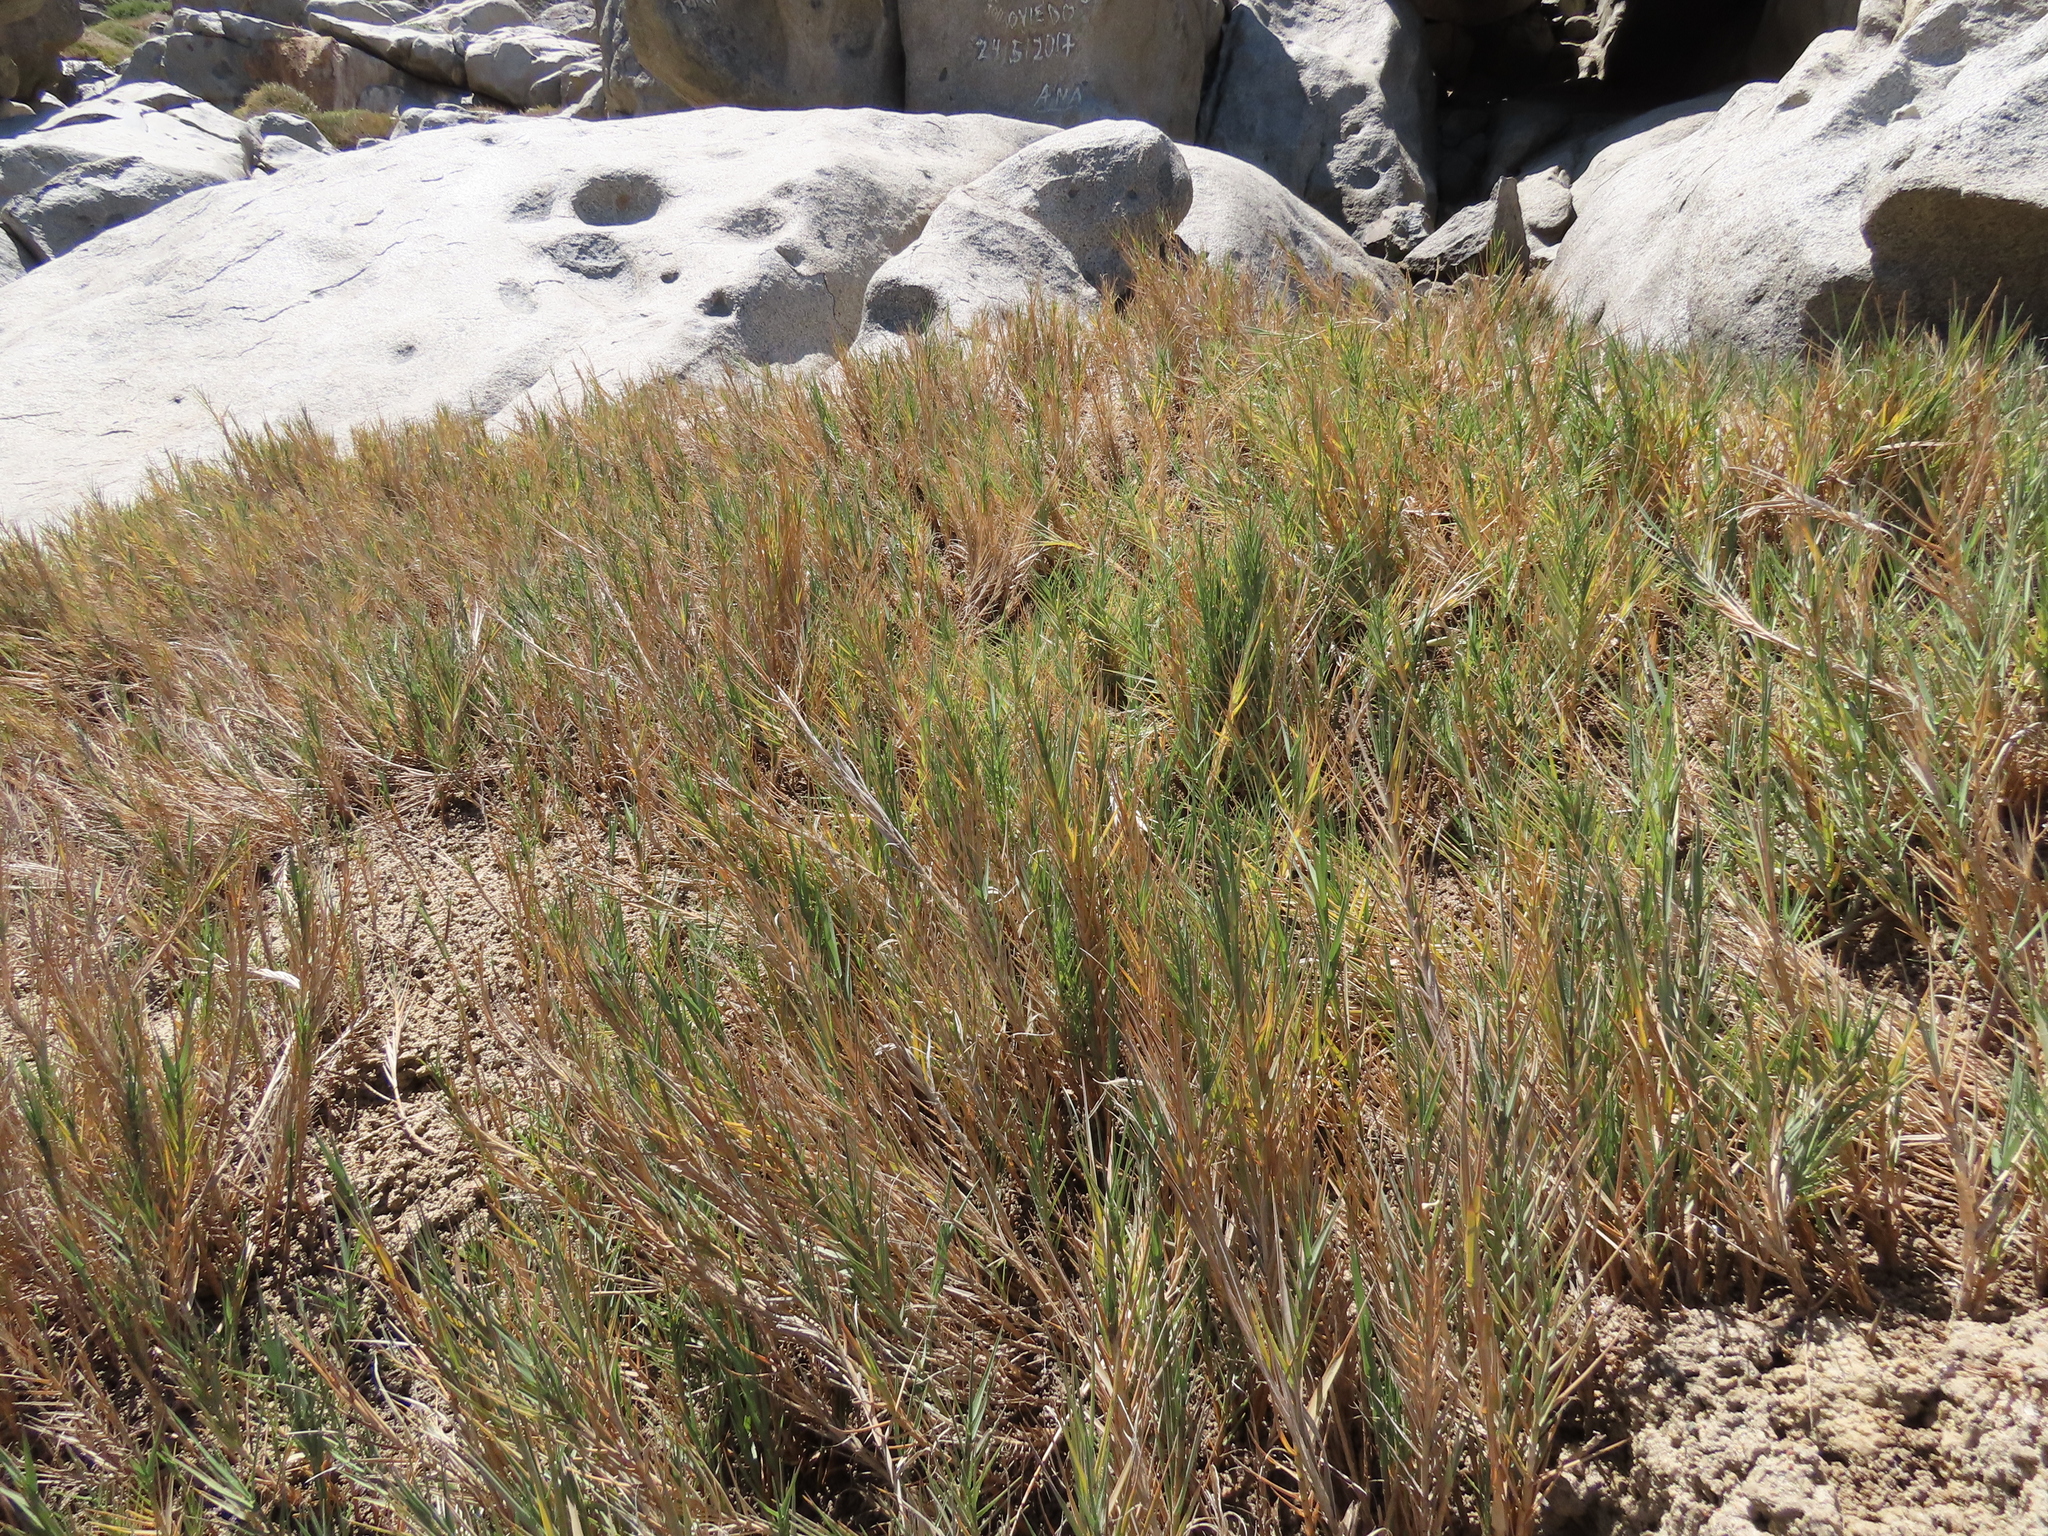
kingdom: Plantae
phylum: Tracheophyta
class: Liliopsida
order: Poales
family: Poaceae
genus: Distichlis
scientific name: Distichlis spicata
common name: Saltgrass
